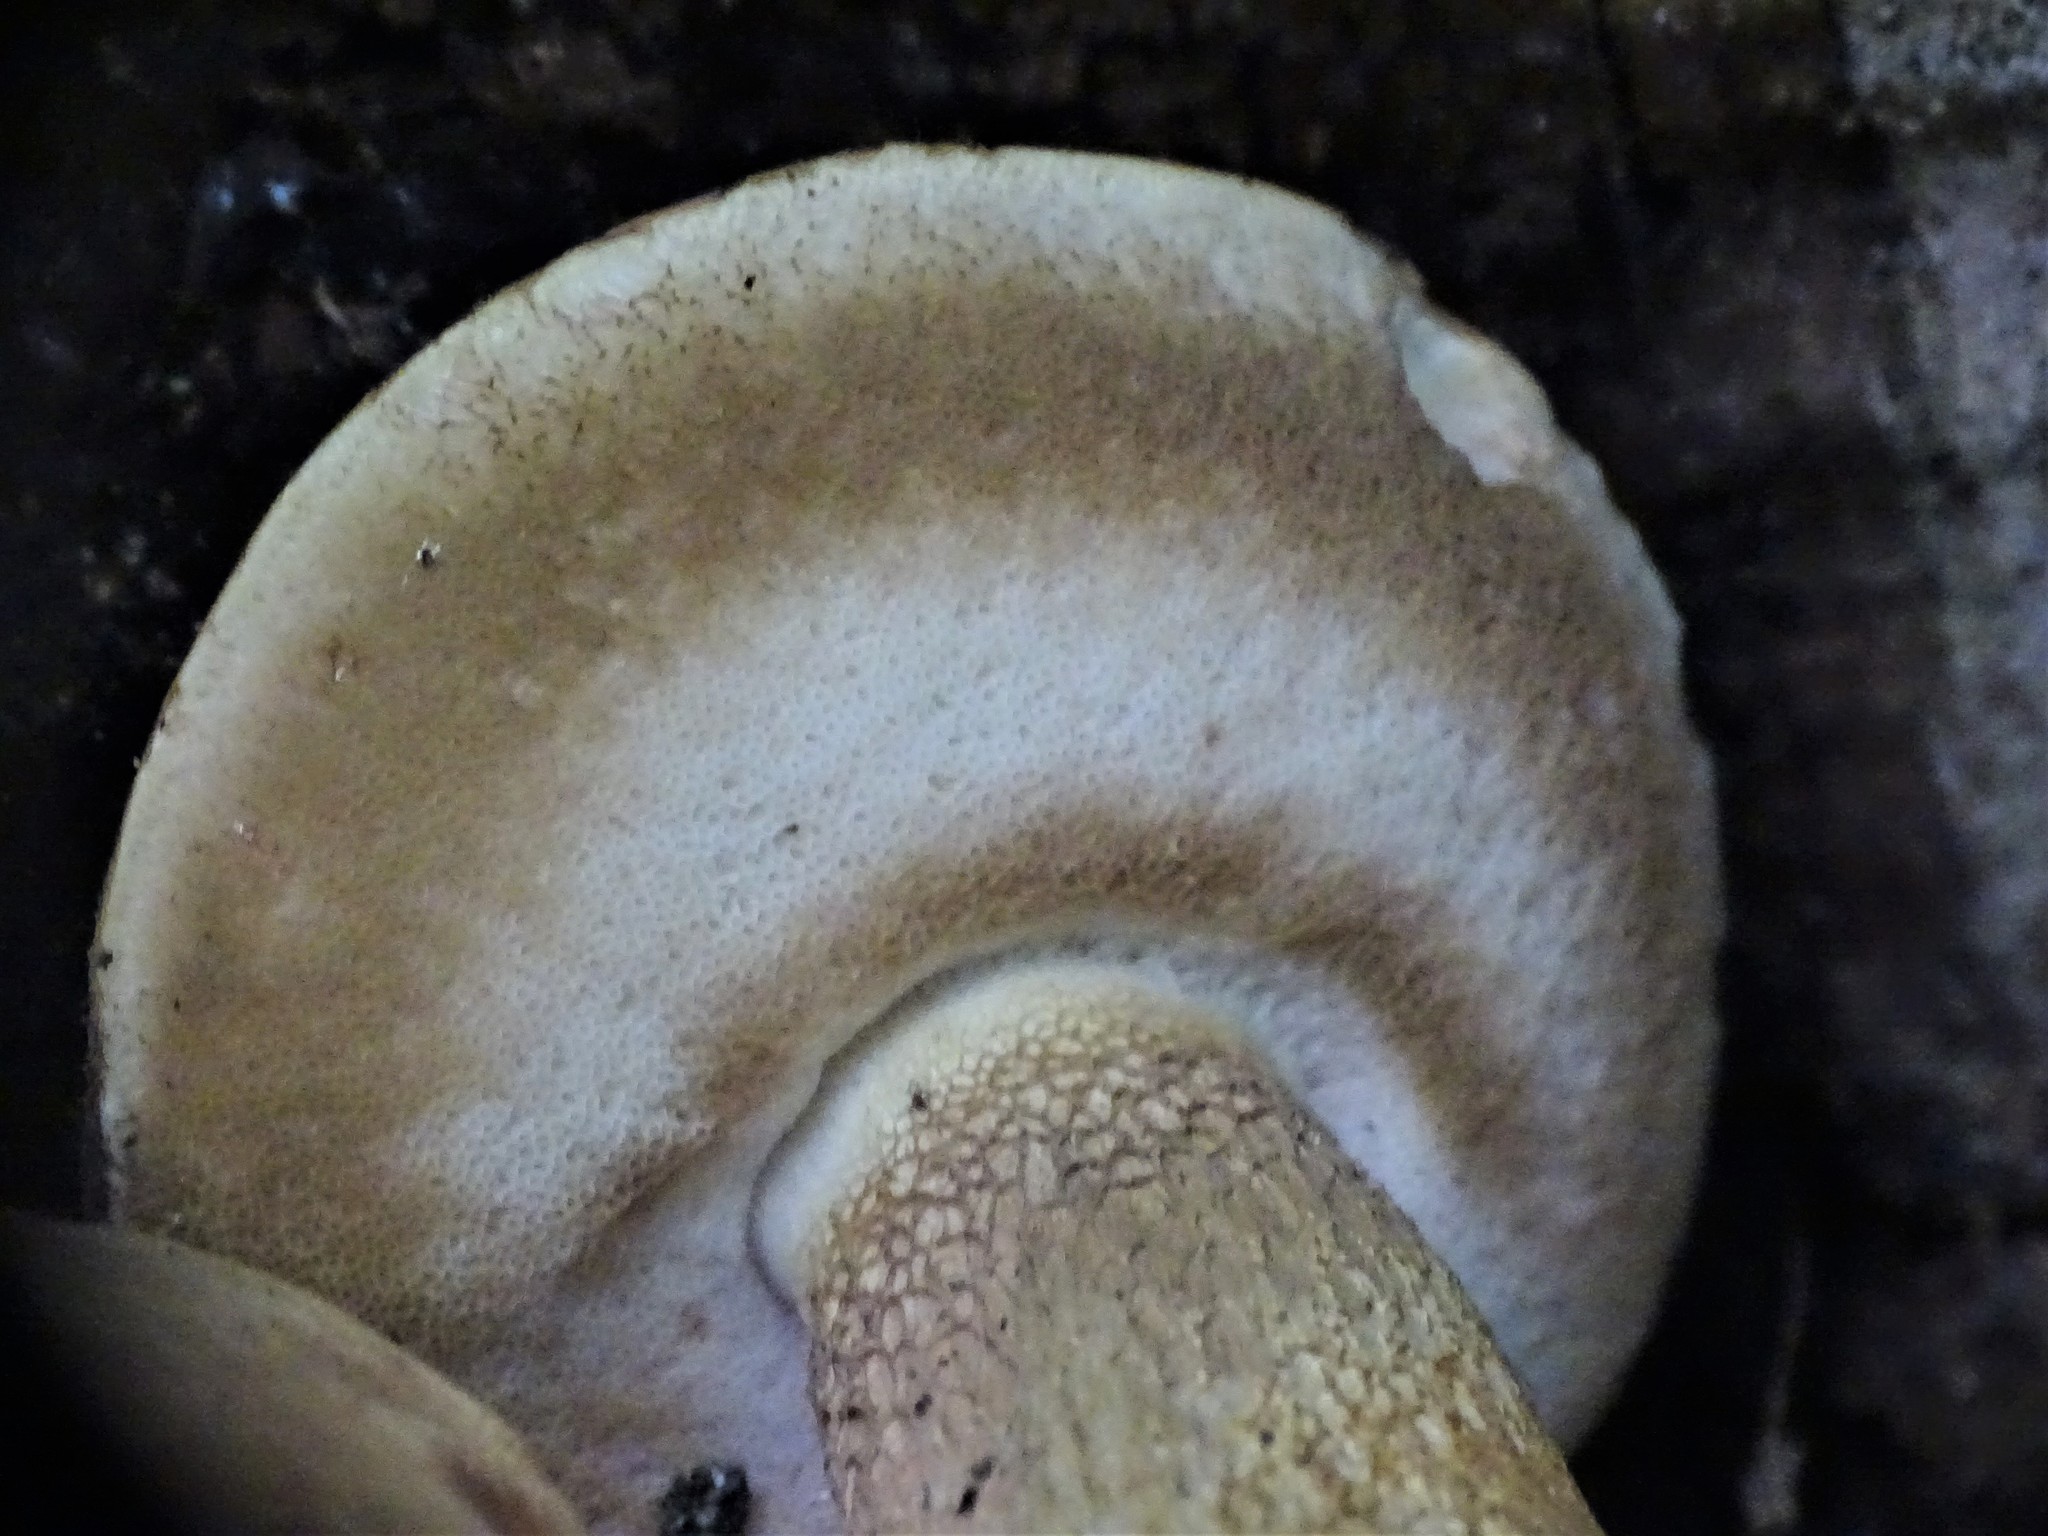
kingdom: Fungi
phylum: Basidiomycota
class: Agaricomycetes
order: Boletales
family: Boletaceae
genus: Tylopilus
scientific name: Tylopilus felleus
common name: Bitter bolete
